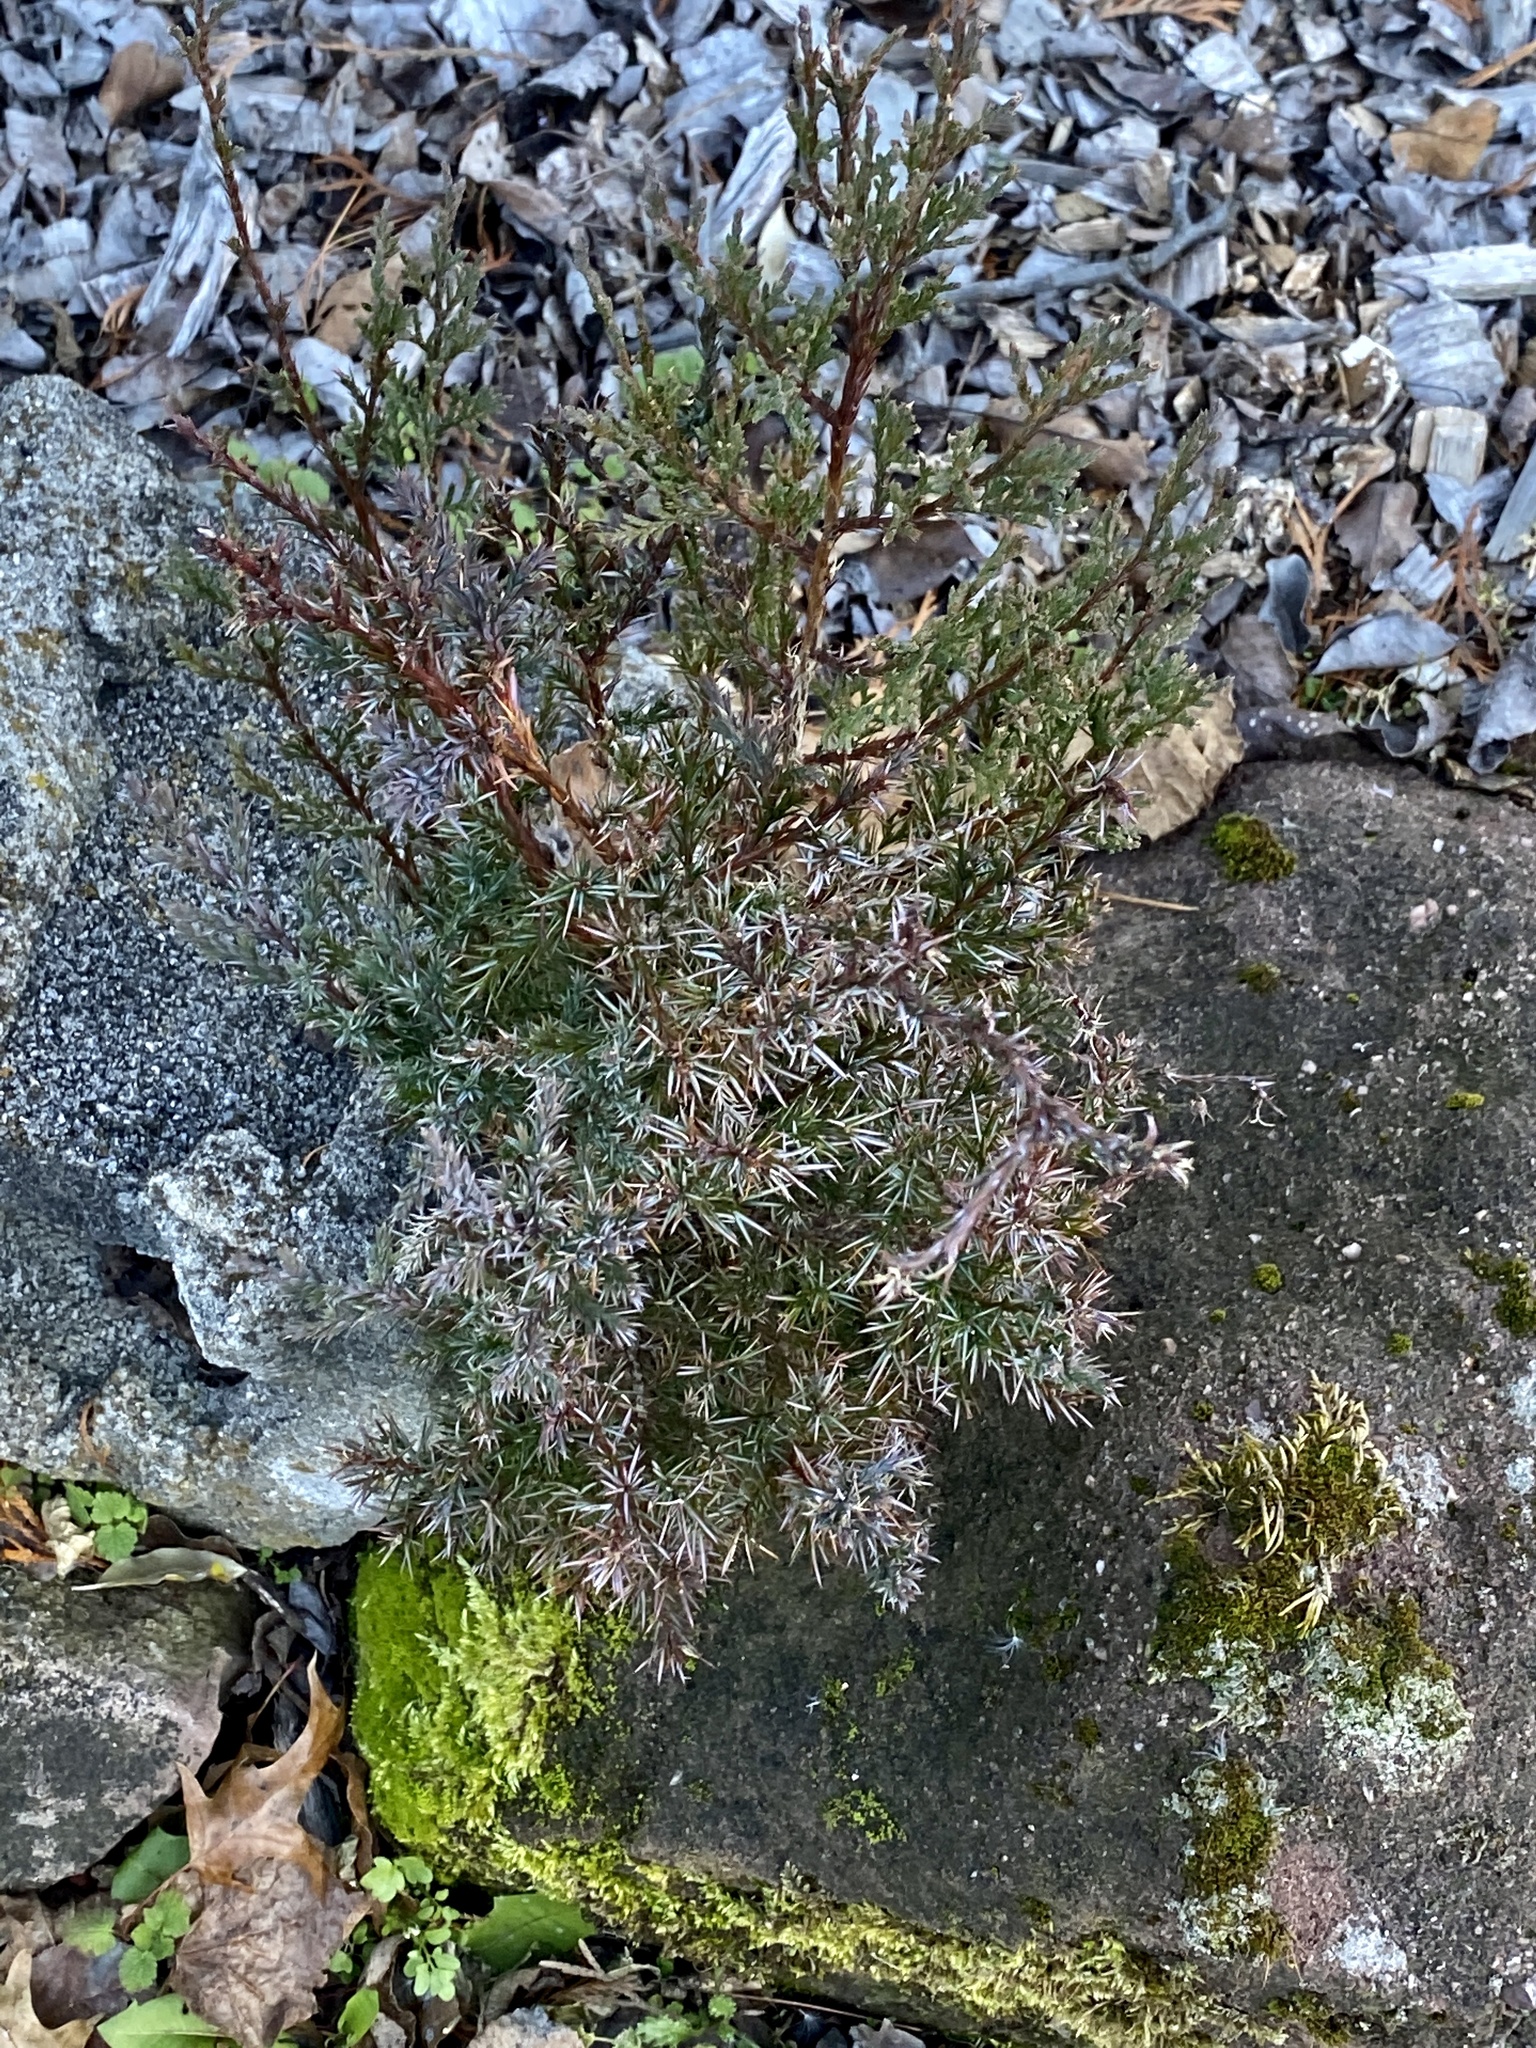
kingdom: Plantae
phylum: Tracheophyta
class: Pinopsida
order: Pinales
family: Cupressaceae
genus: Juniperus
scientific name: Juniperus virginiana
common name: Red juniper
